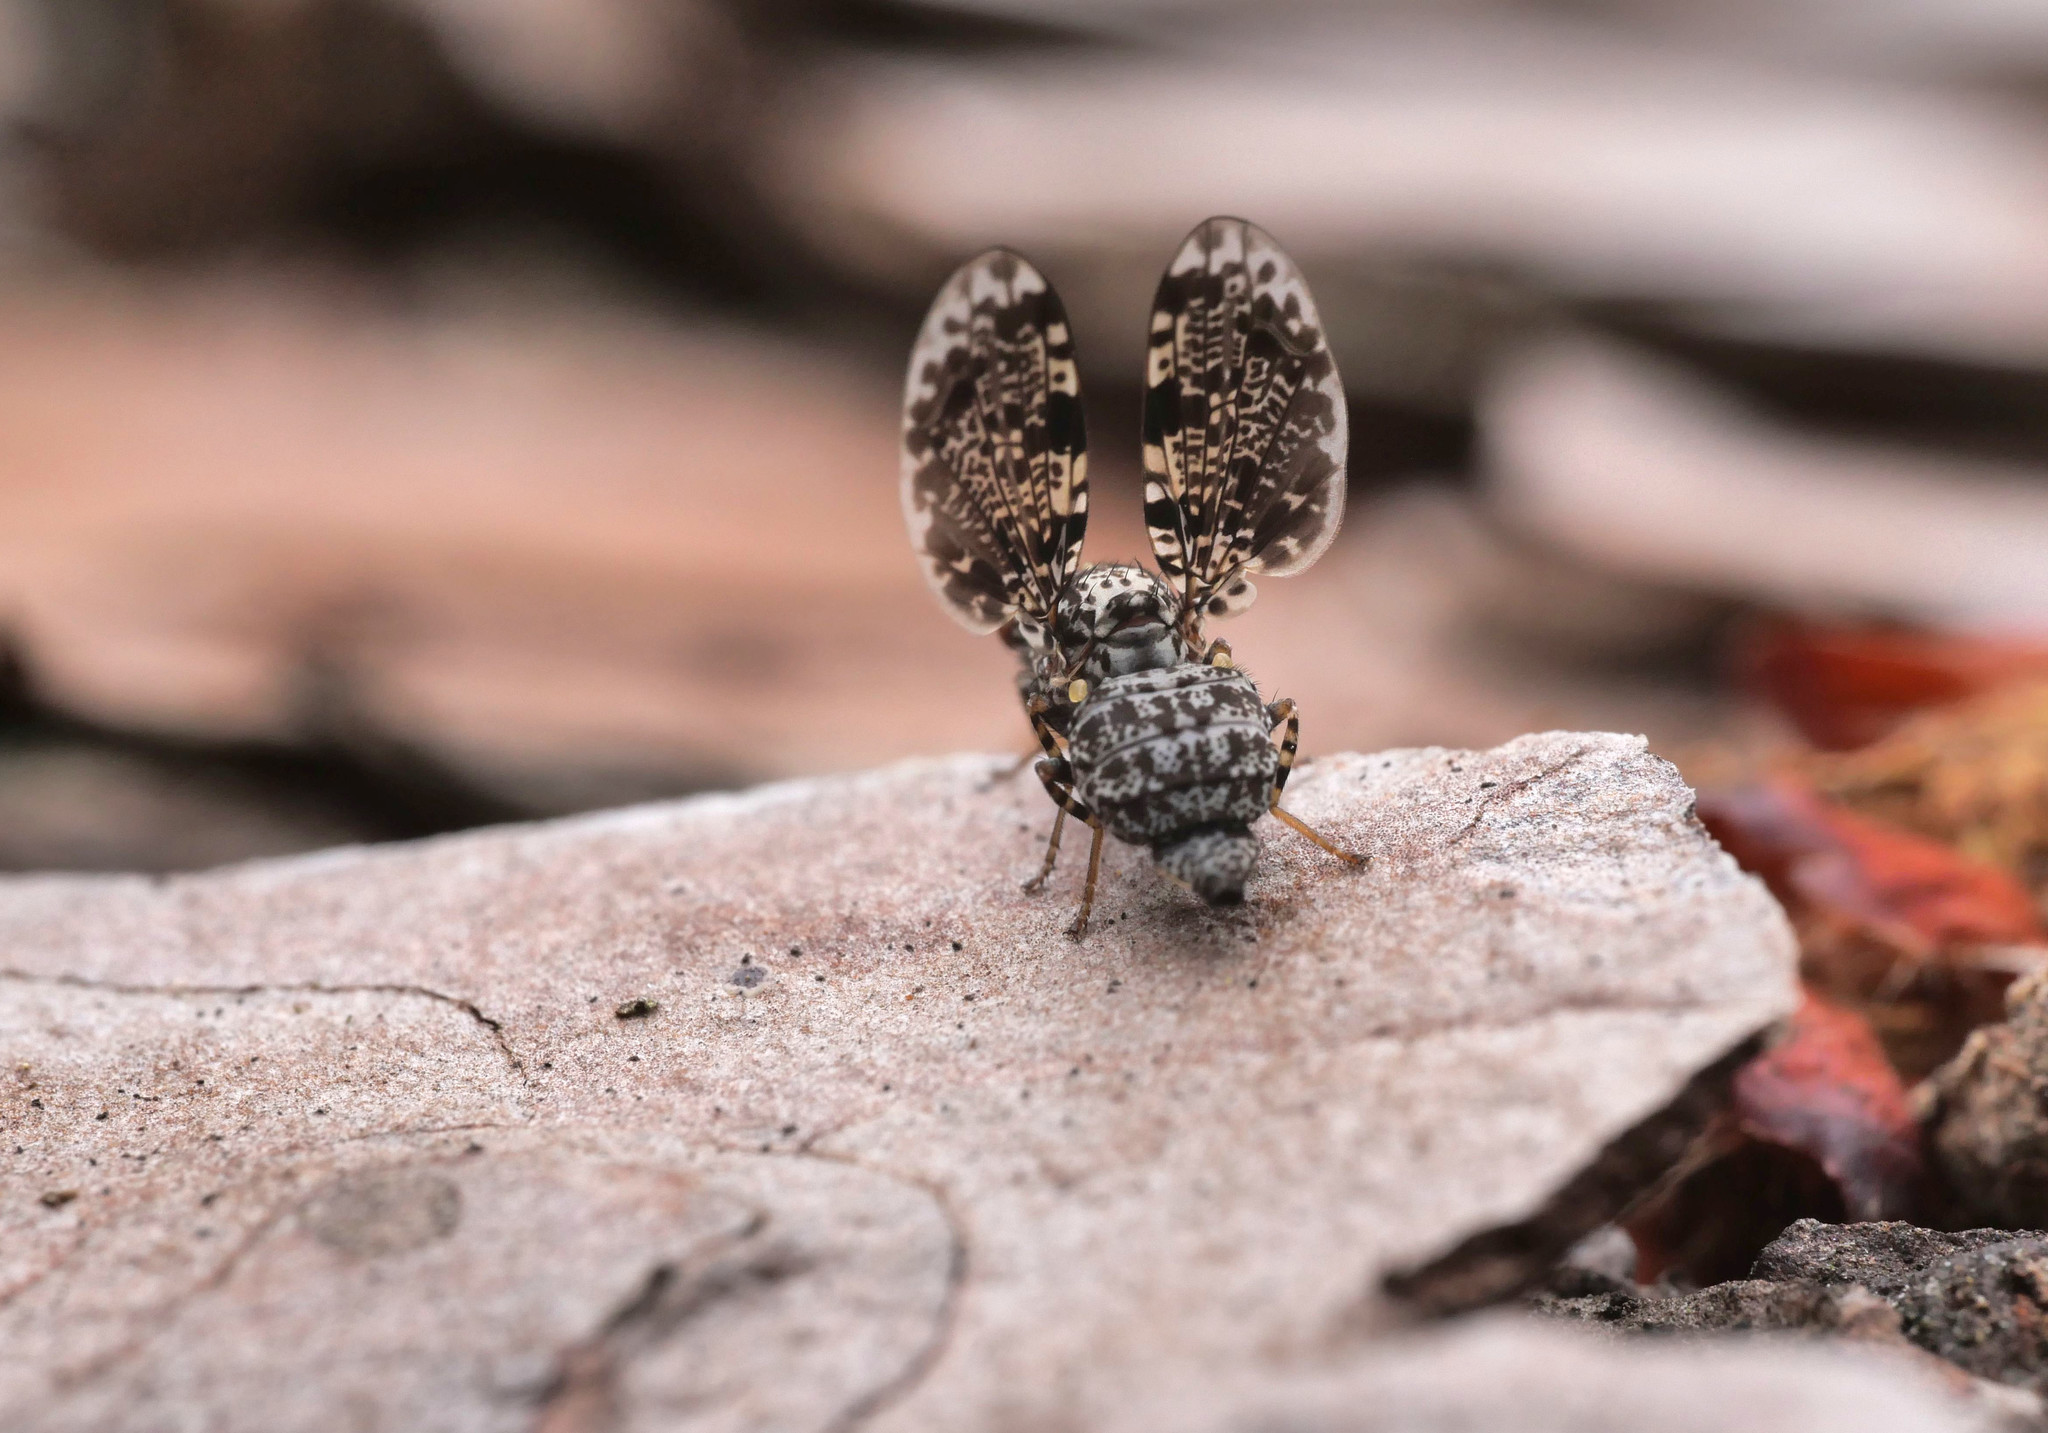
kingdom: Animalia
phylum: Arthropoda
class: Insecta
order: Diptera
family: Ulidiidae
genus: Callopistromyia
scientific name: Callopistromyia annulipes
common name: Peacock fly
